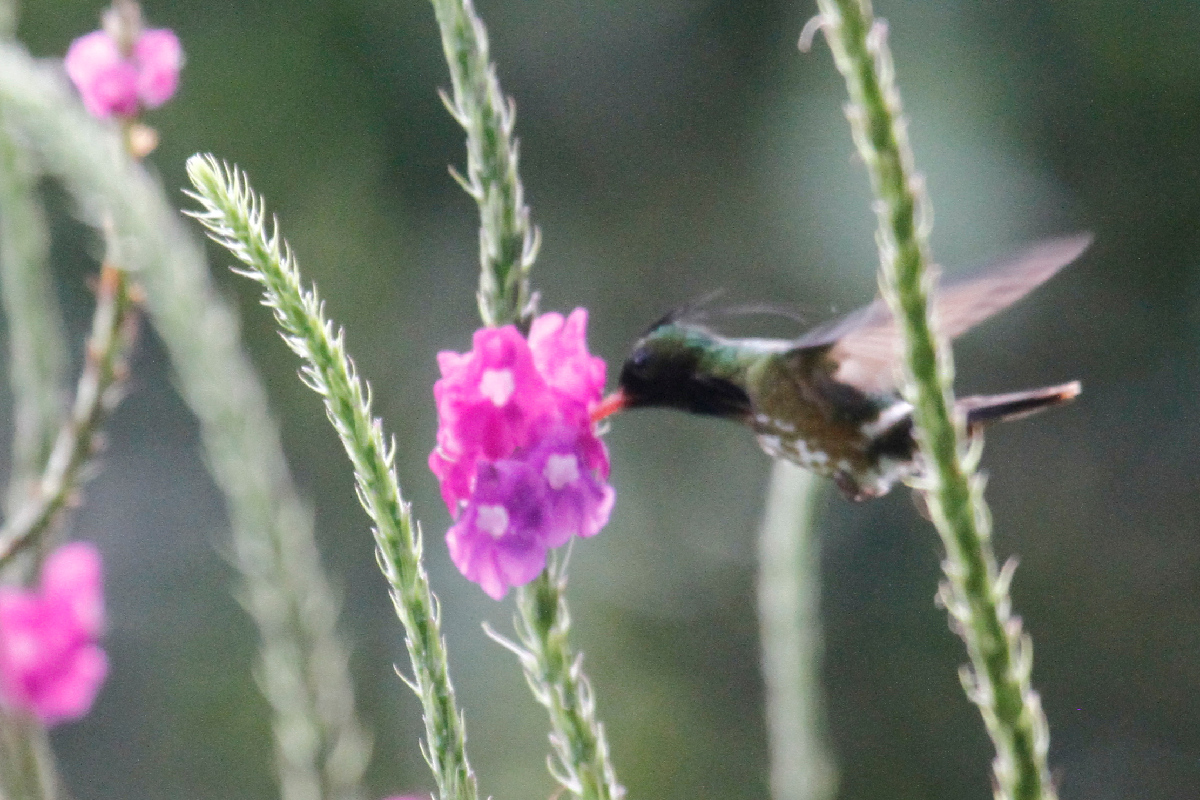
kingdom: Animalia
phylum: Chordata
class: Aves
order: Apodiformes
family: Trochilidae
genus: Lophornis
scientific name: Lophornis helenae
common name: Black-crested coquette
